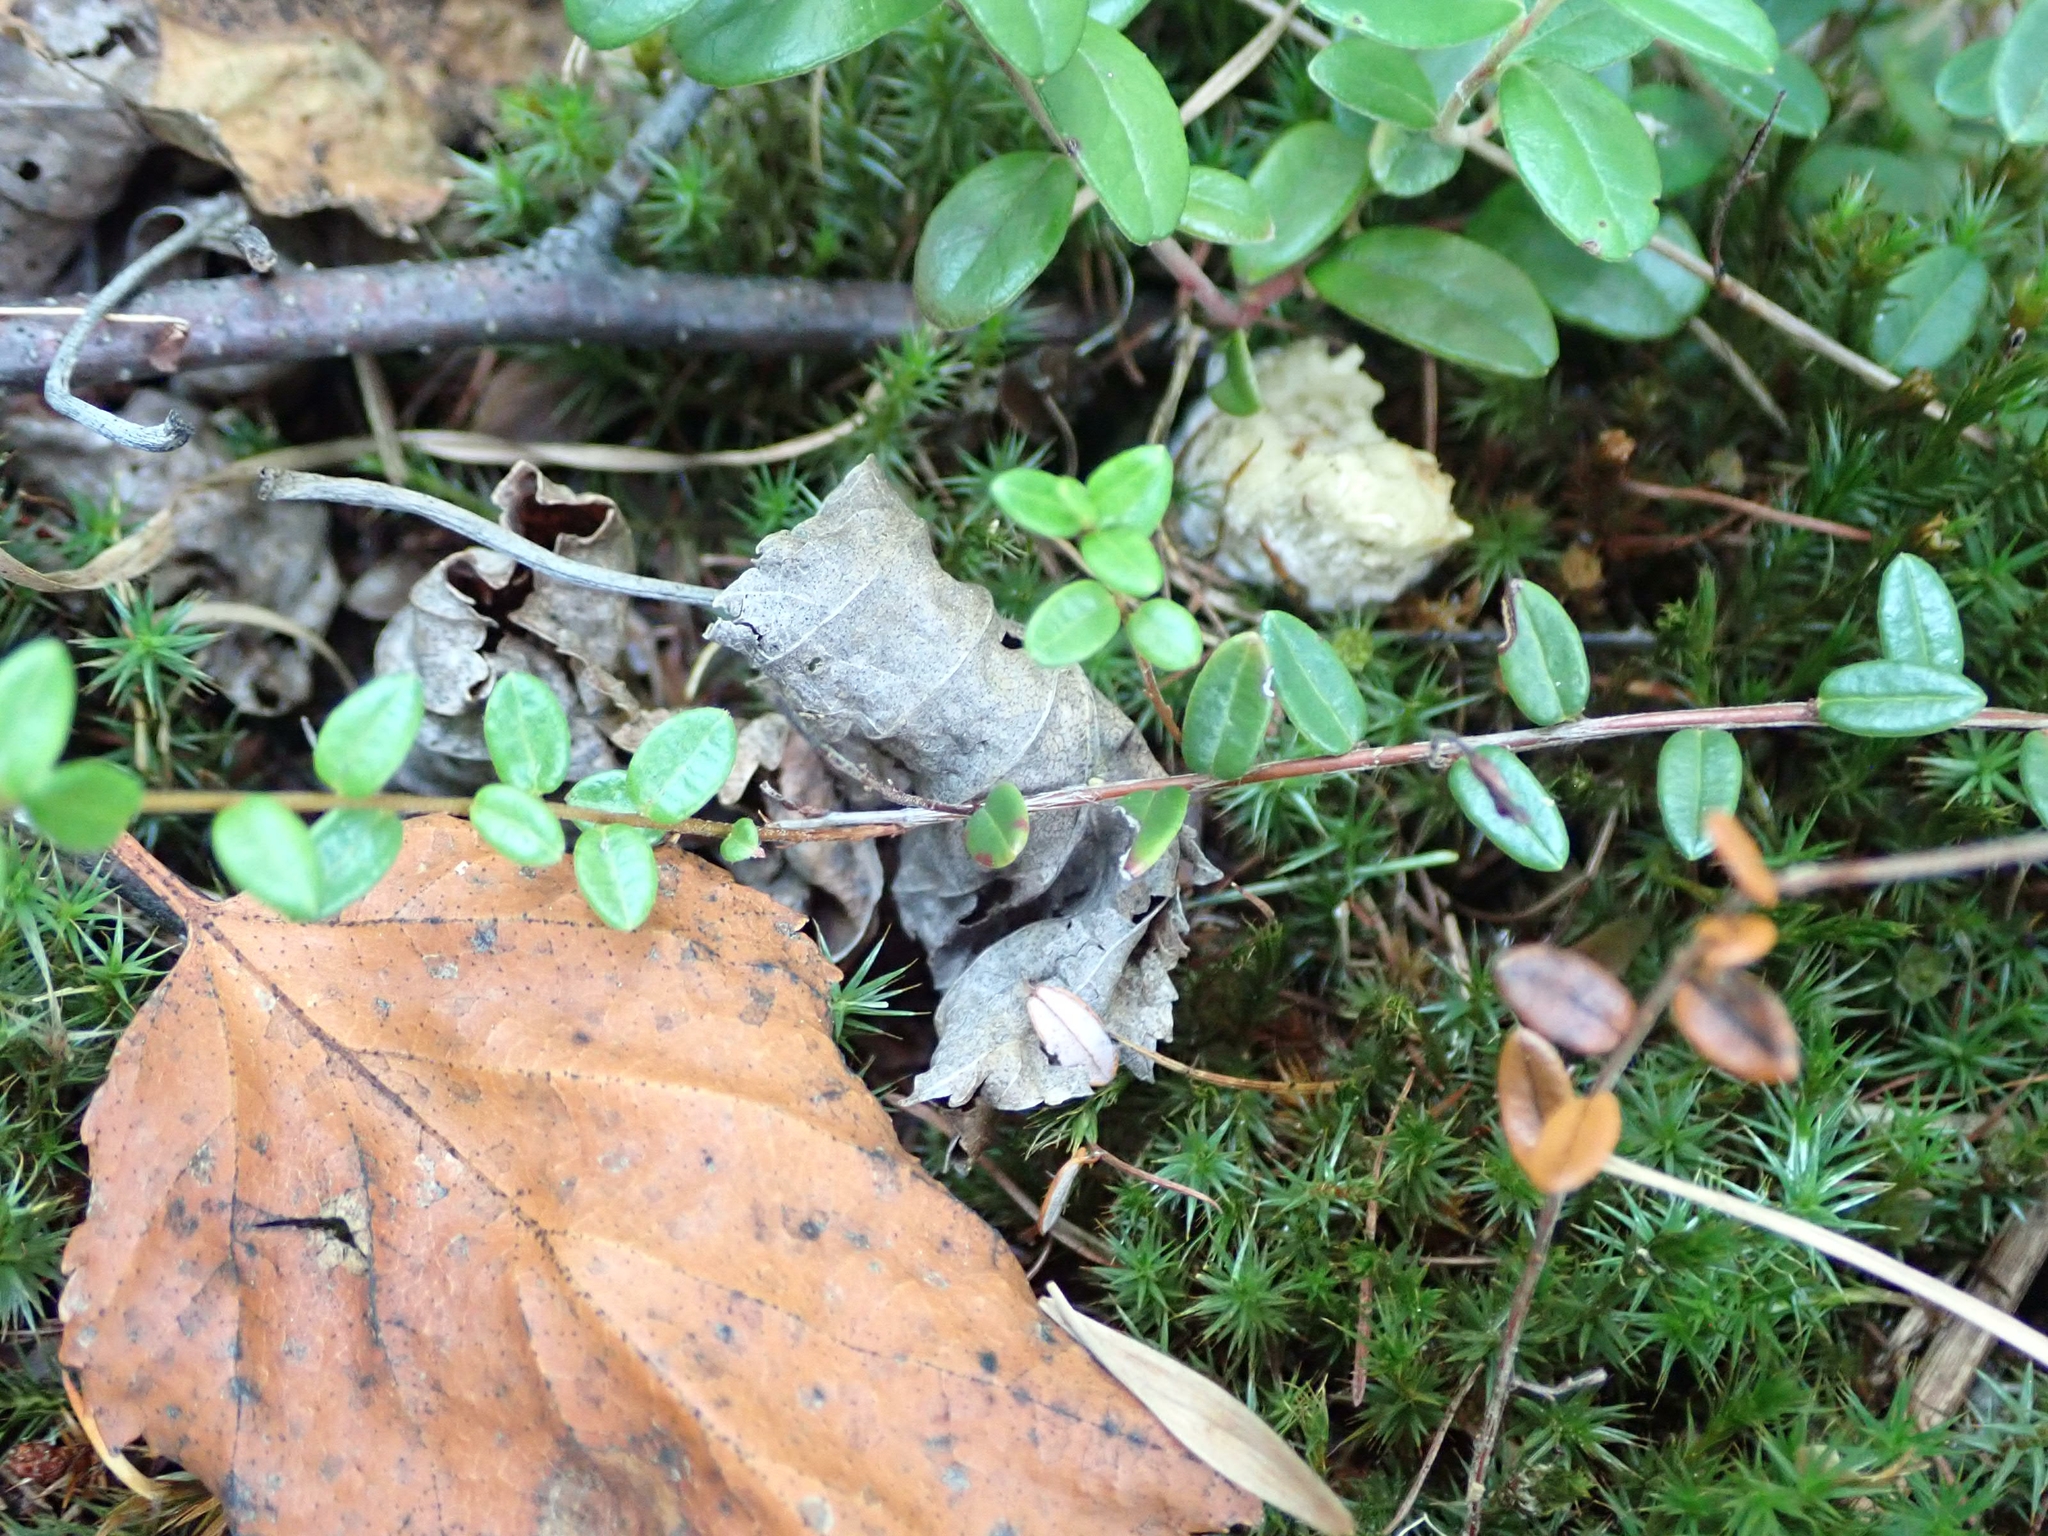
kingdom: Plantae
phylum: Tracheophyta
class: Magnoliopsida
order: Ericales
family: Ericaceae
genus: Vaccinium
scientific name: Vaccinium oxycoccos
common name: Cranberry
